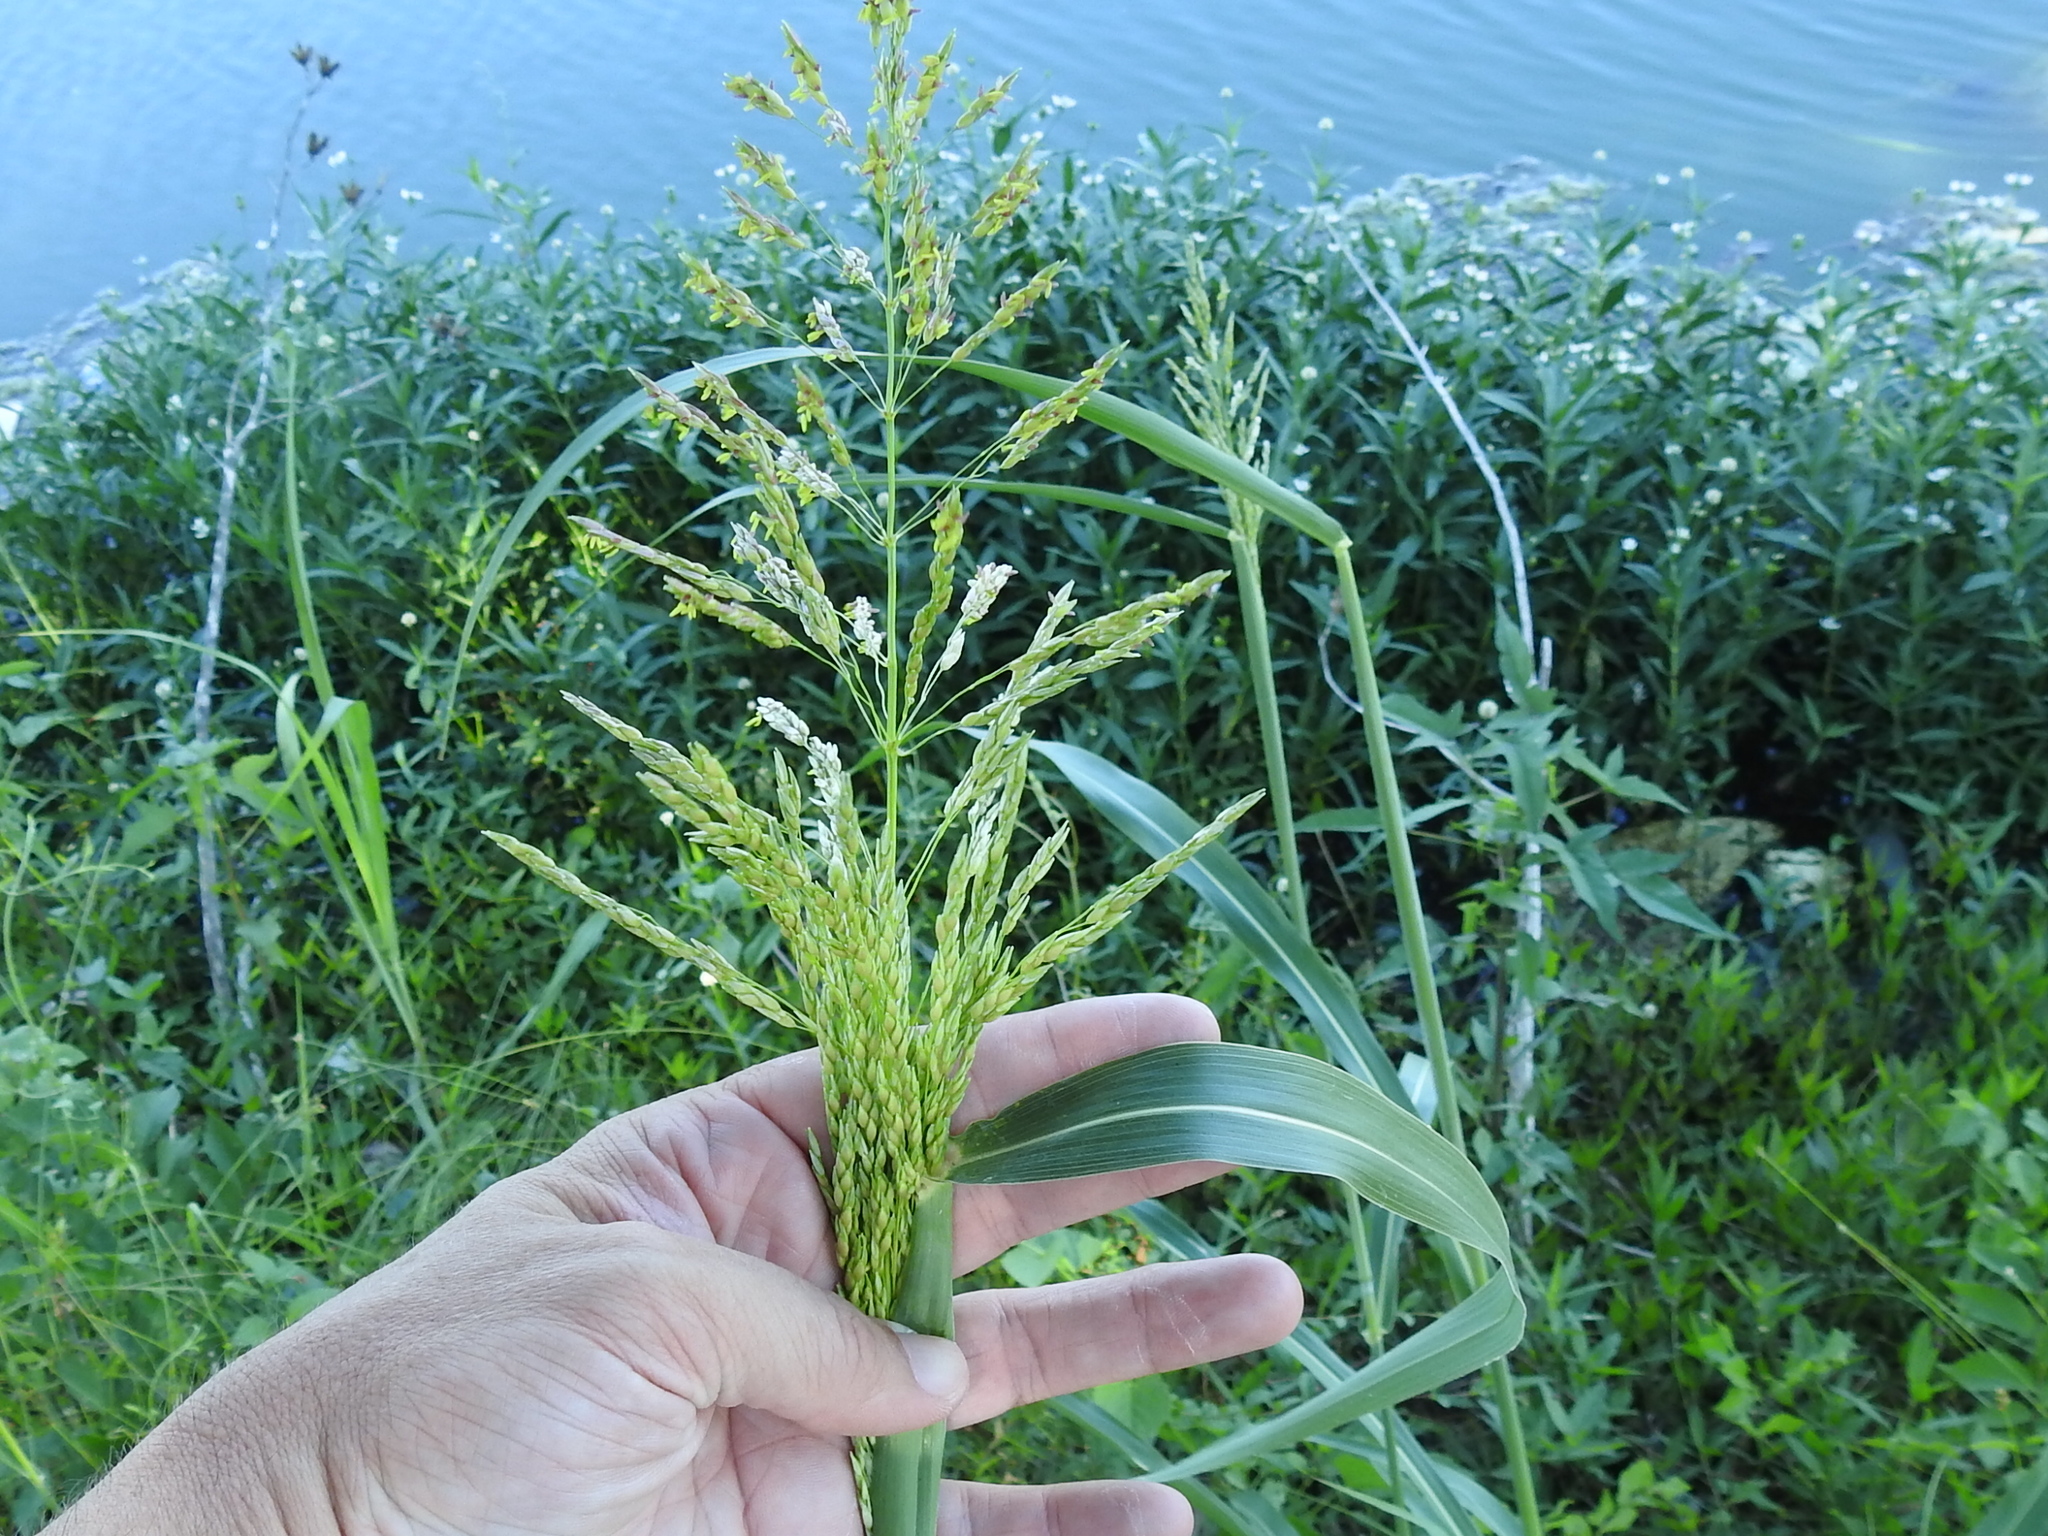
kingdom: Plantae
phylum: Tracheophyta
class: Liliopsida
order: Poales
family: Poaceae
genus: Sorghum
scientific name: Sorghum halepense
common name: Johnson-grass
